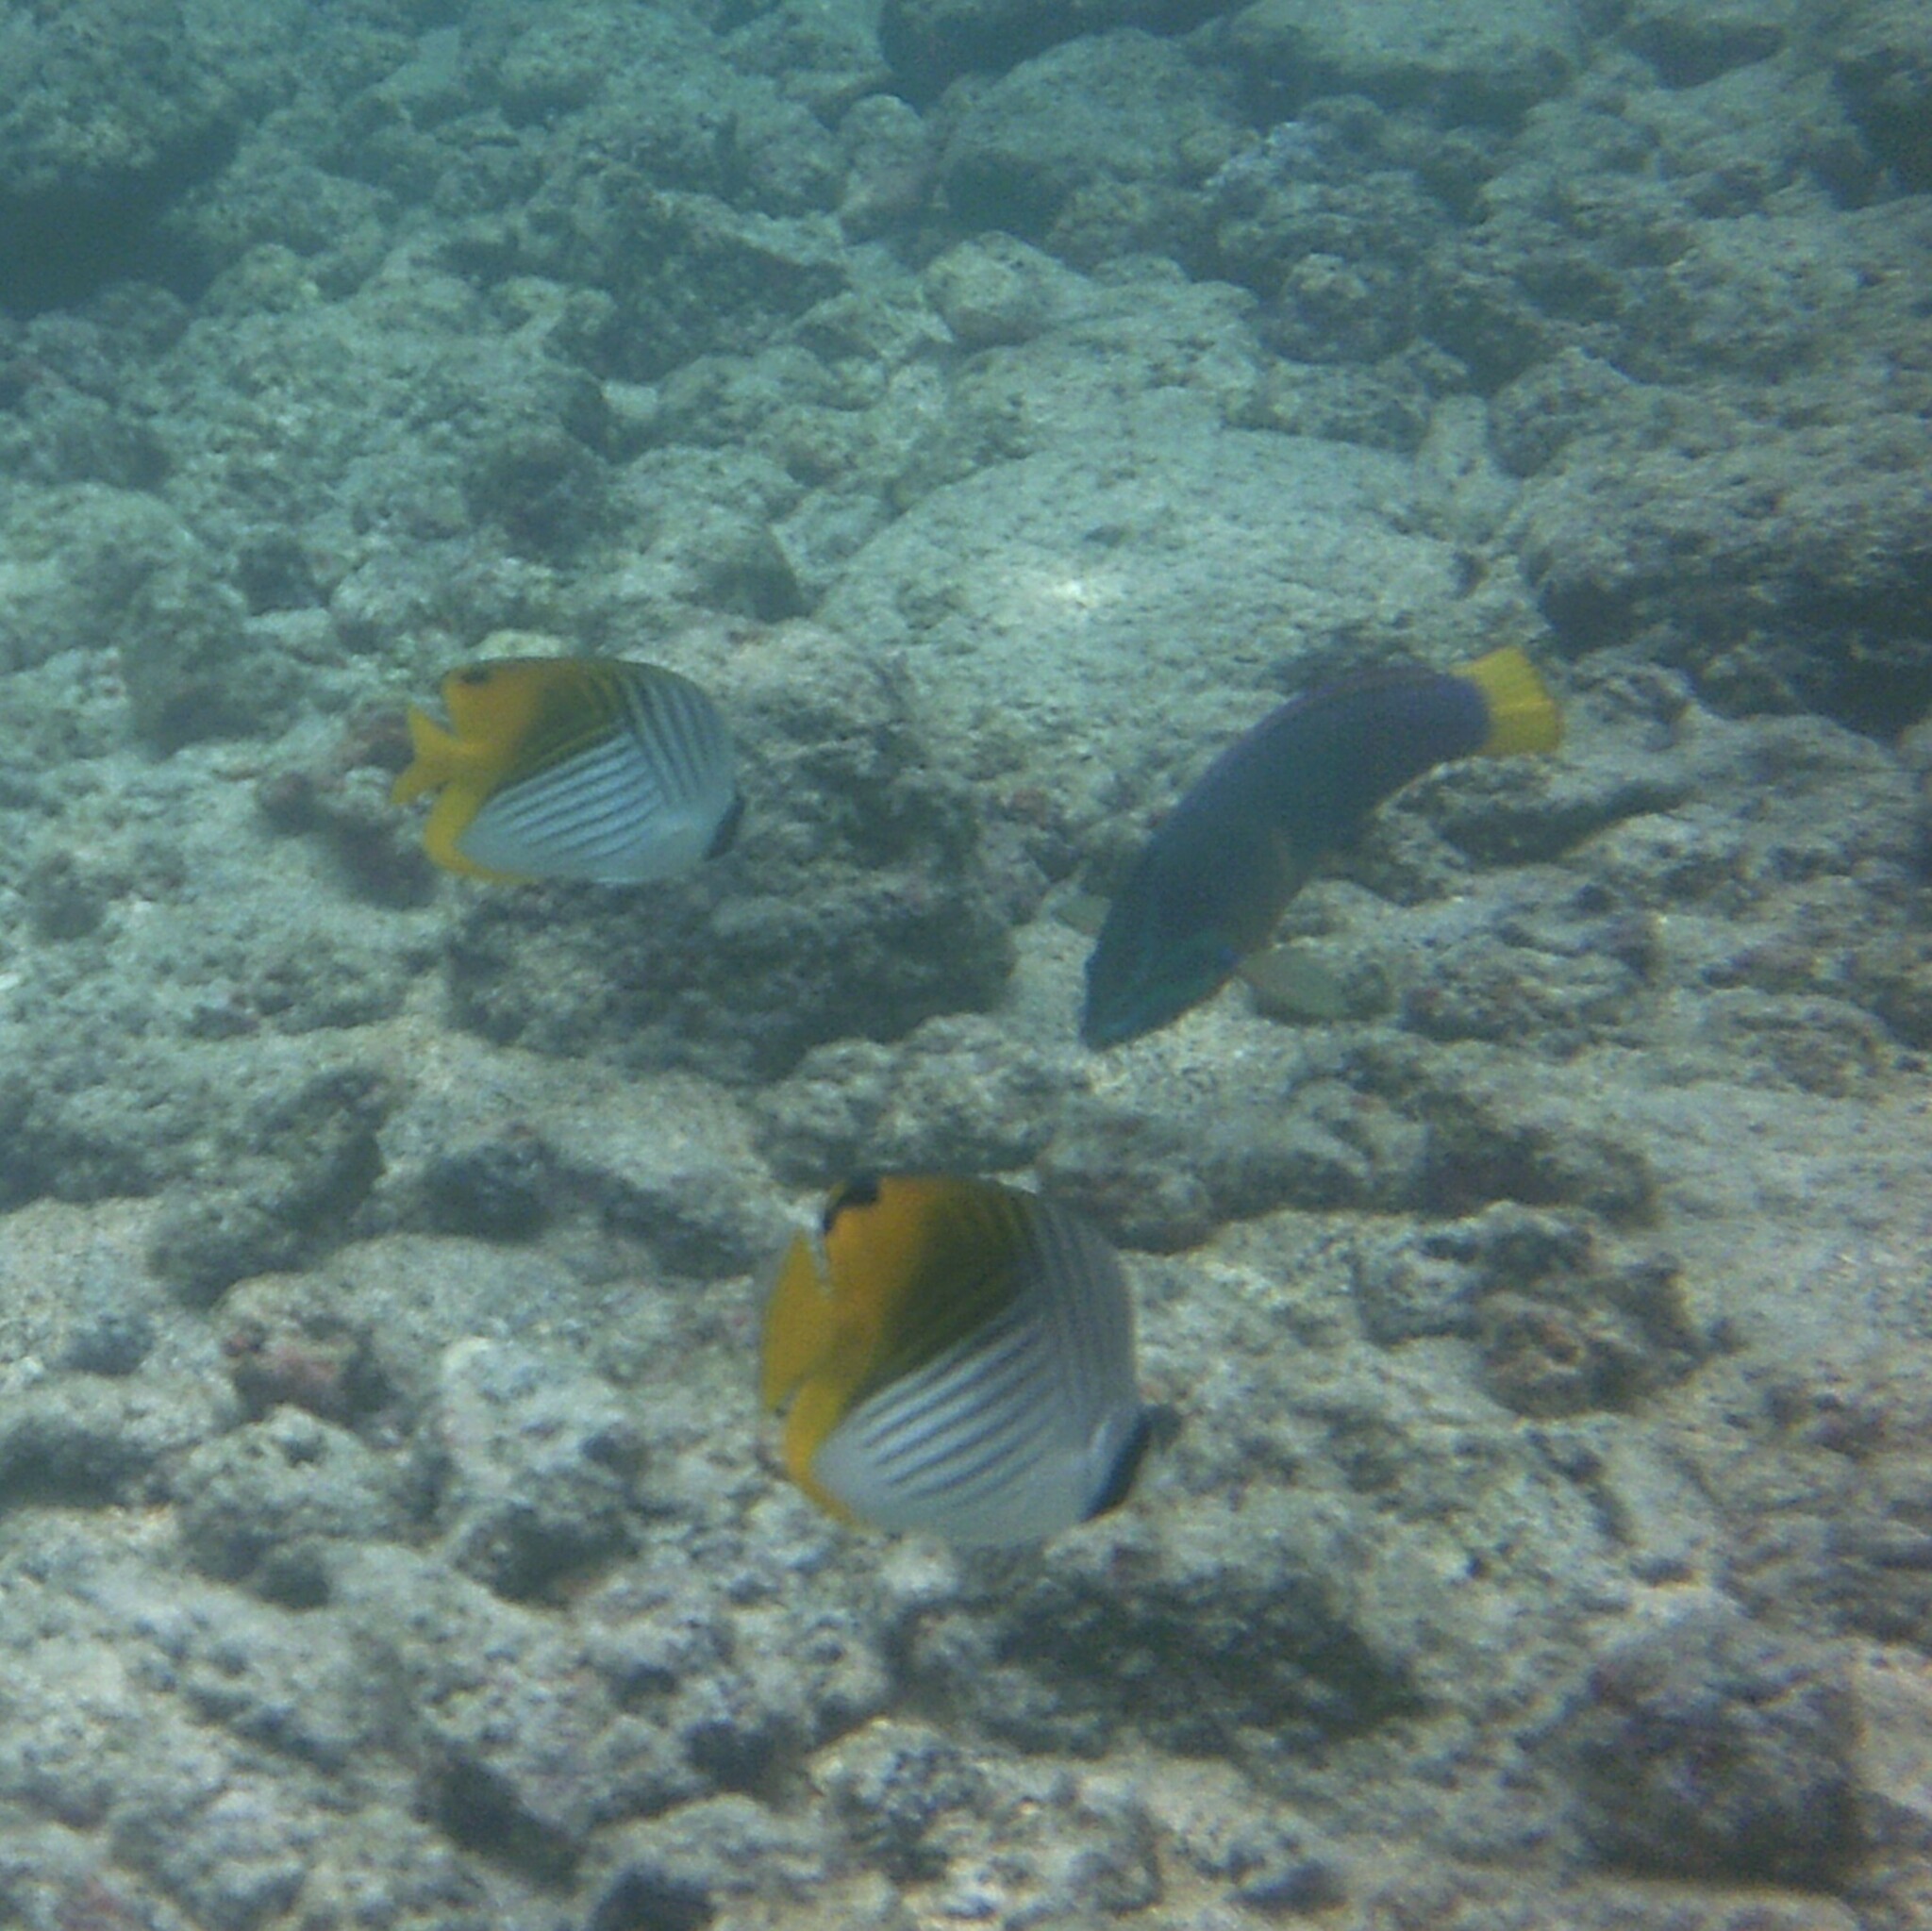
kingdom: Animalia
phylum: Chordata
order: Perciformes
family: Labridae
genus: Coris
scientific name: Coris gaimard
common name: Yellowtail coris
